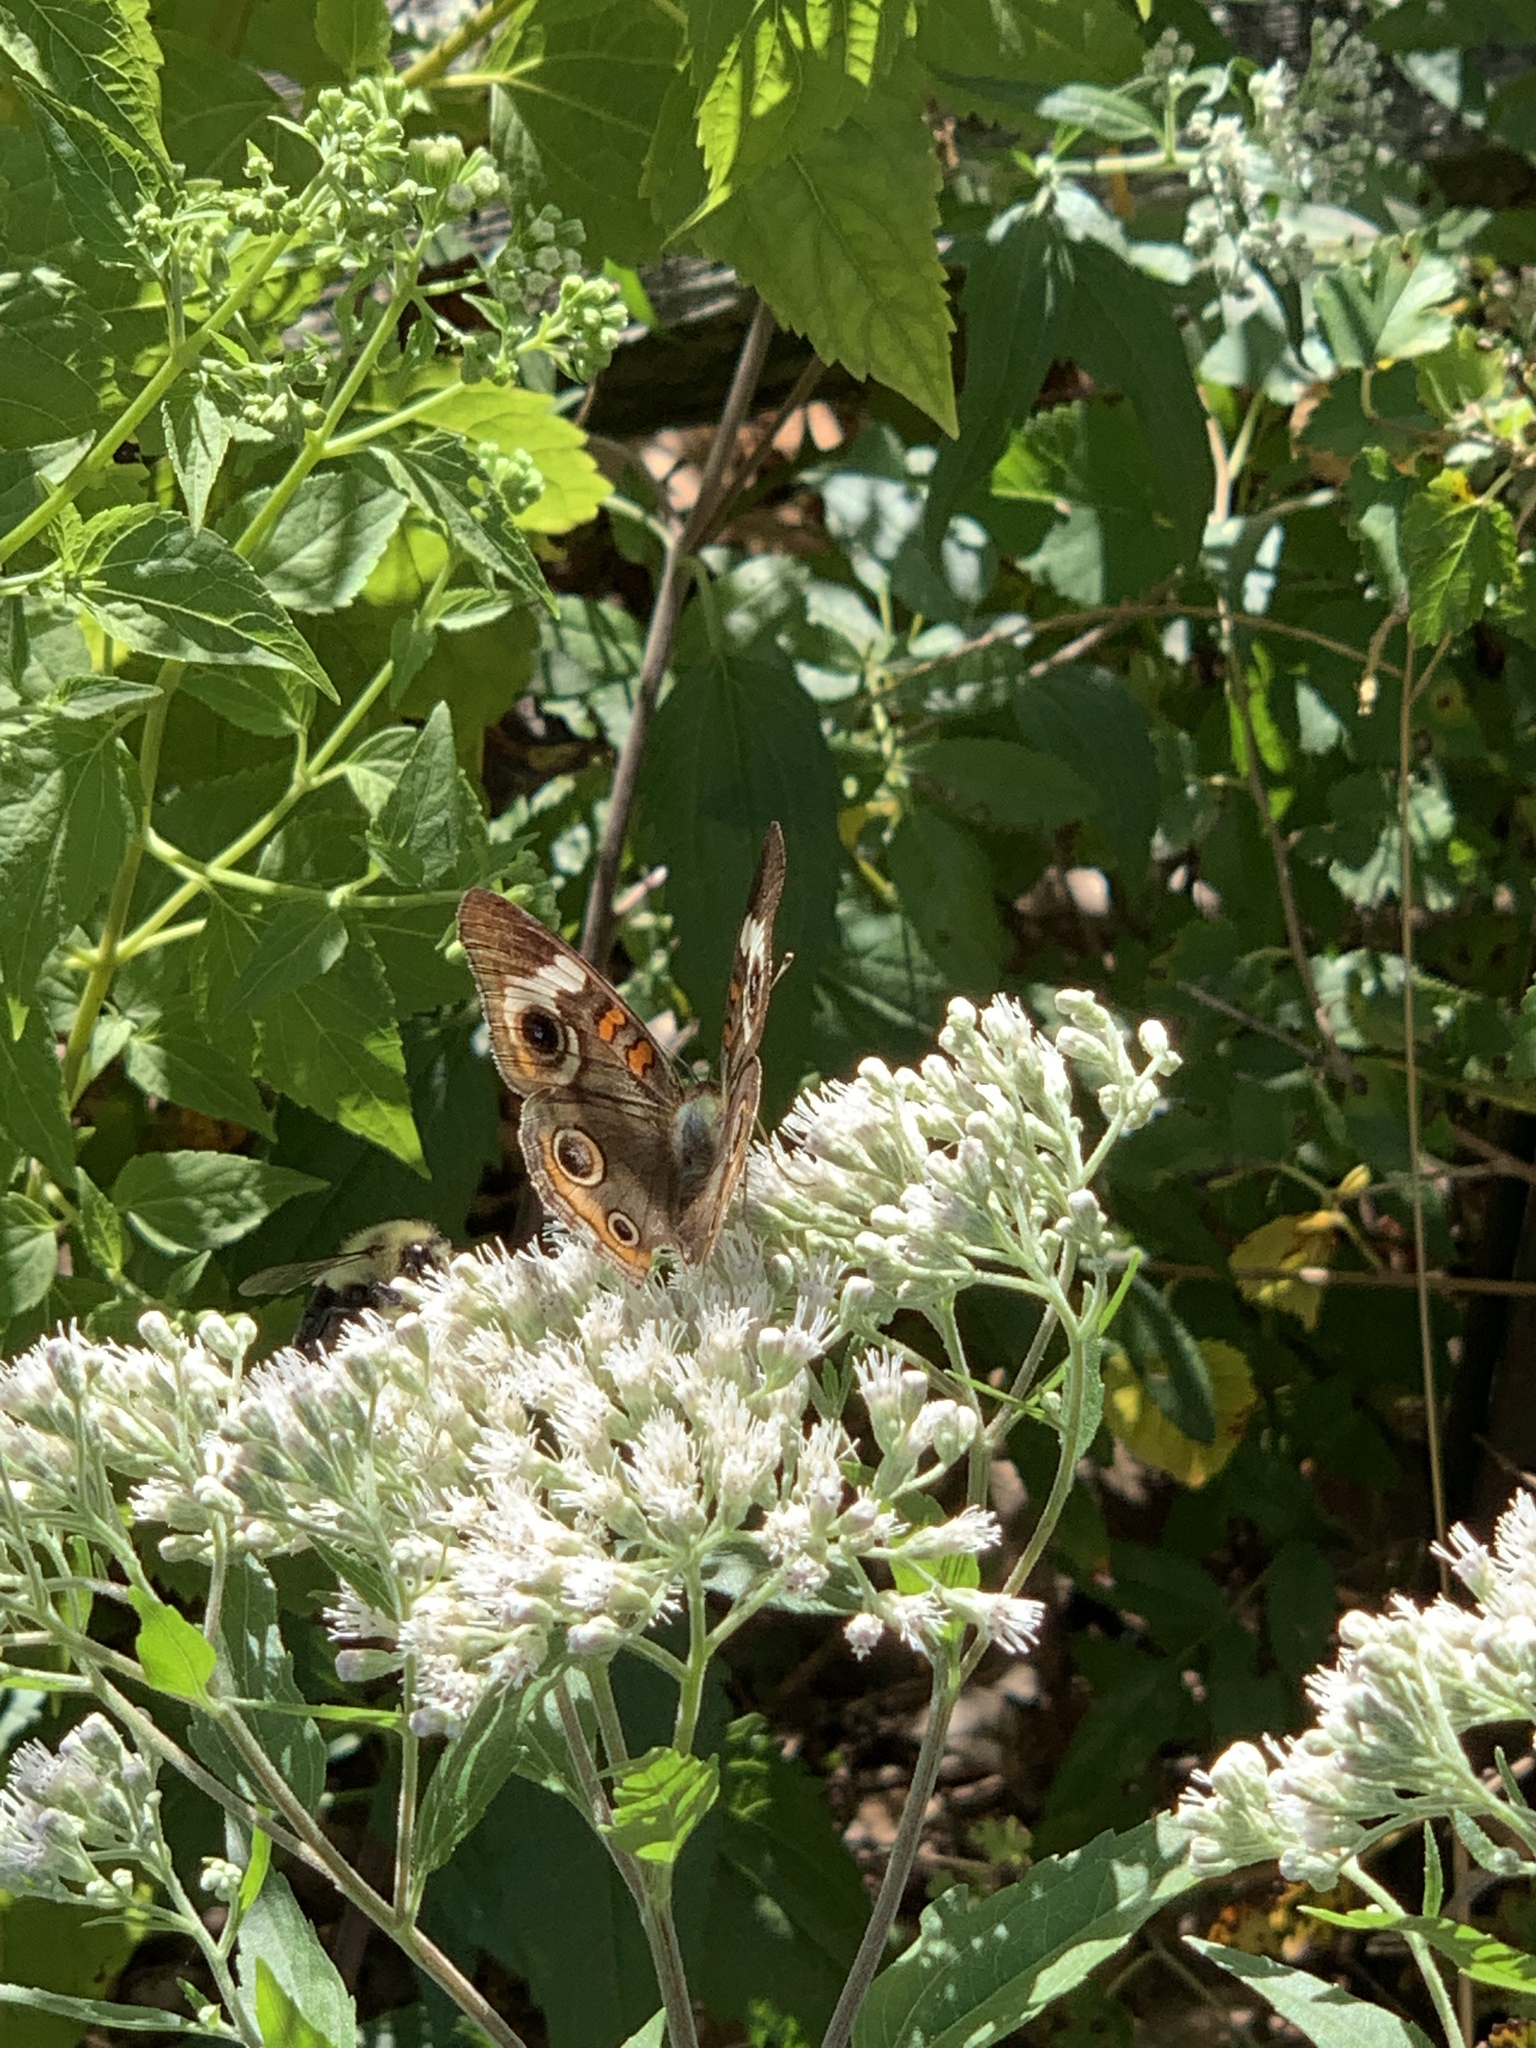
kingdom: Animalia
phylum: Arthropoda
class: Insecta
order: Lepidoptera
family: Nymphalidae
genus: Junonia
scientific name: Junonia coenia
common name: Common buckeye
